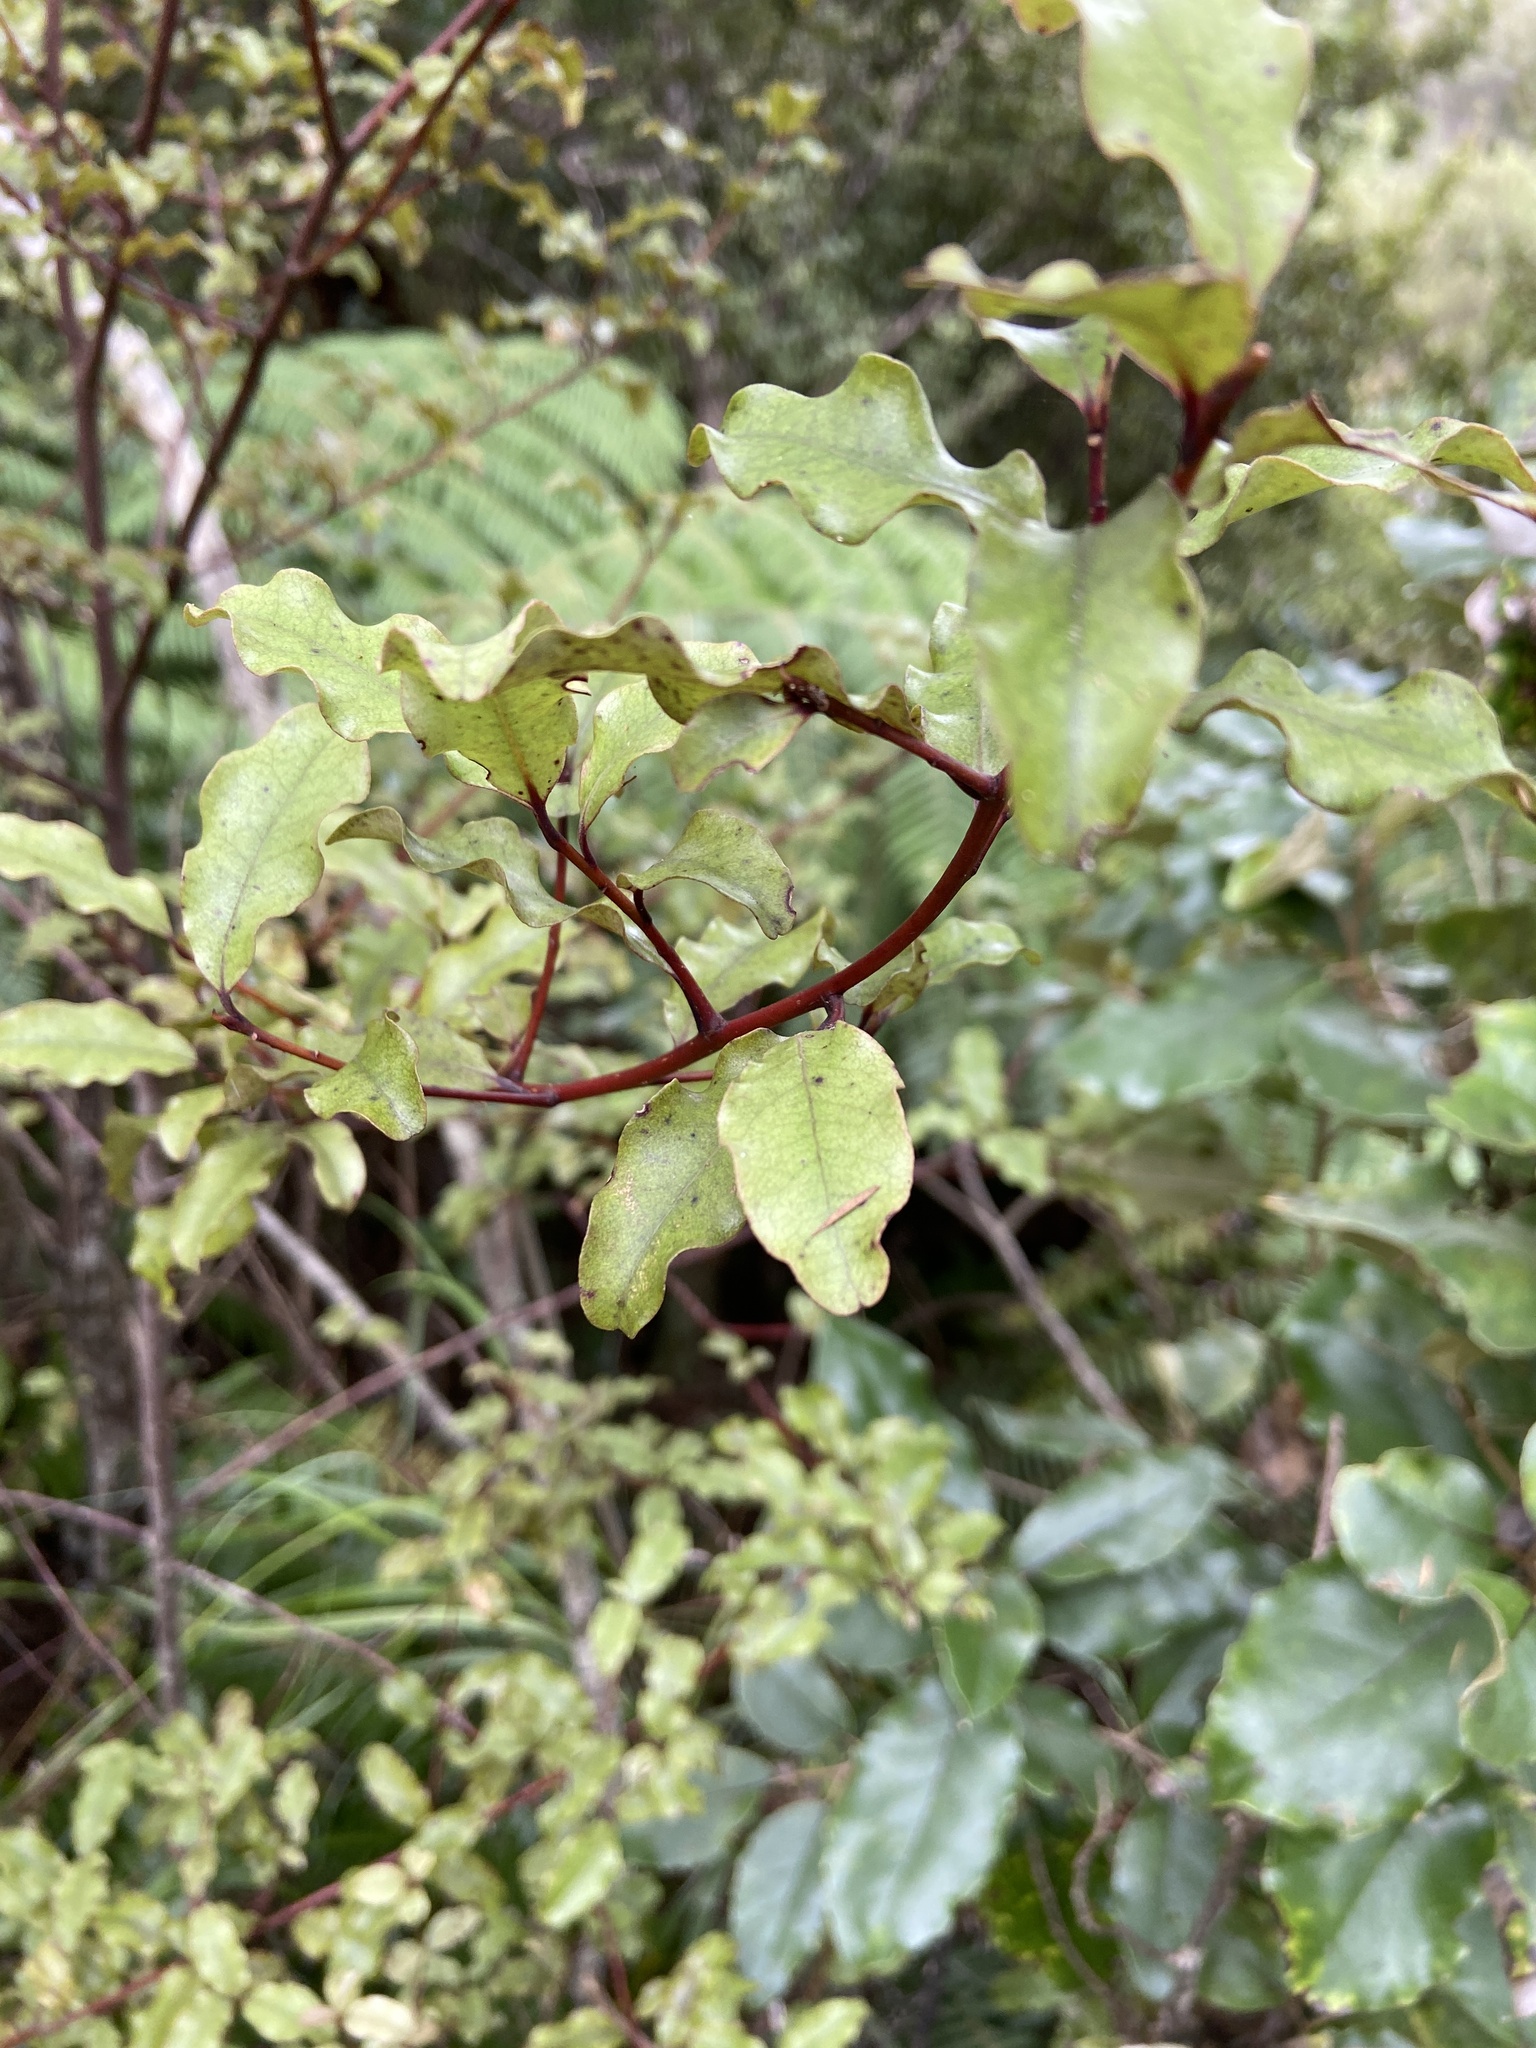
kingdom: Plantae
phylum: Tracheophyta
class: Magnoliopsida
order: Ericales
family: Primulaceae
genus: Myrsine
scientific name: Myrsine australis
